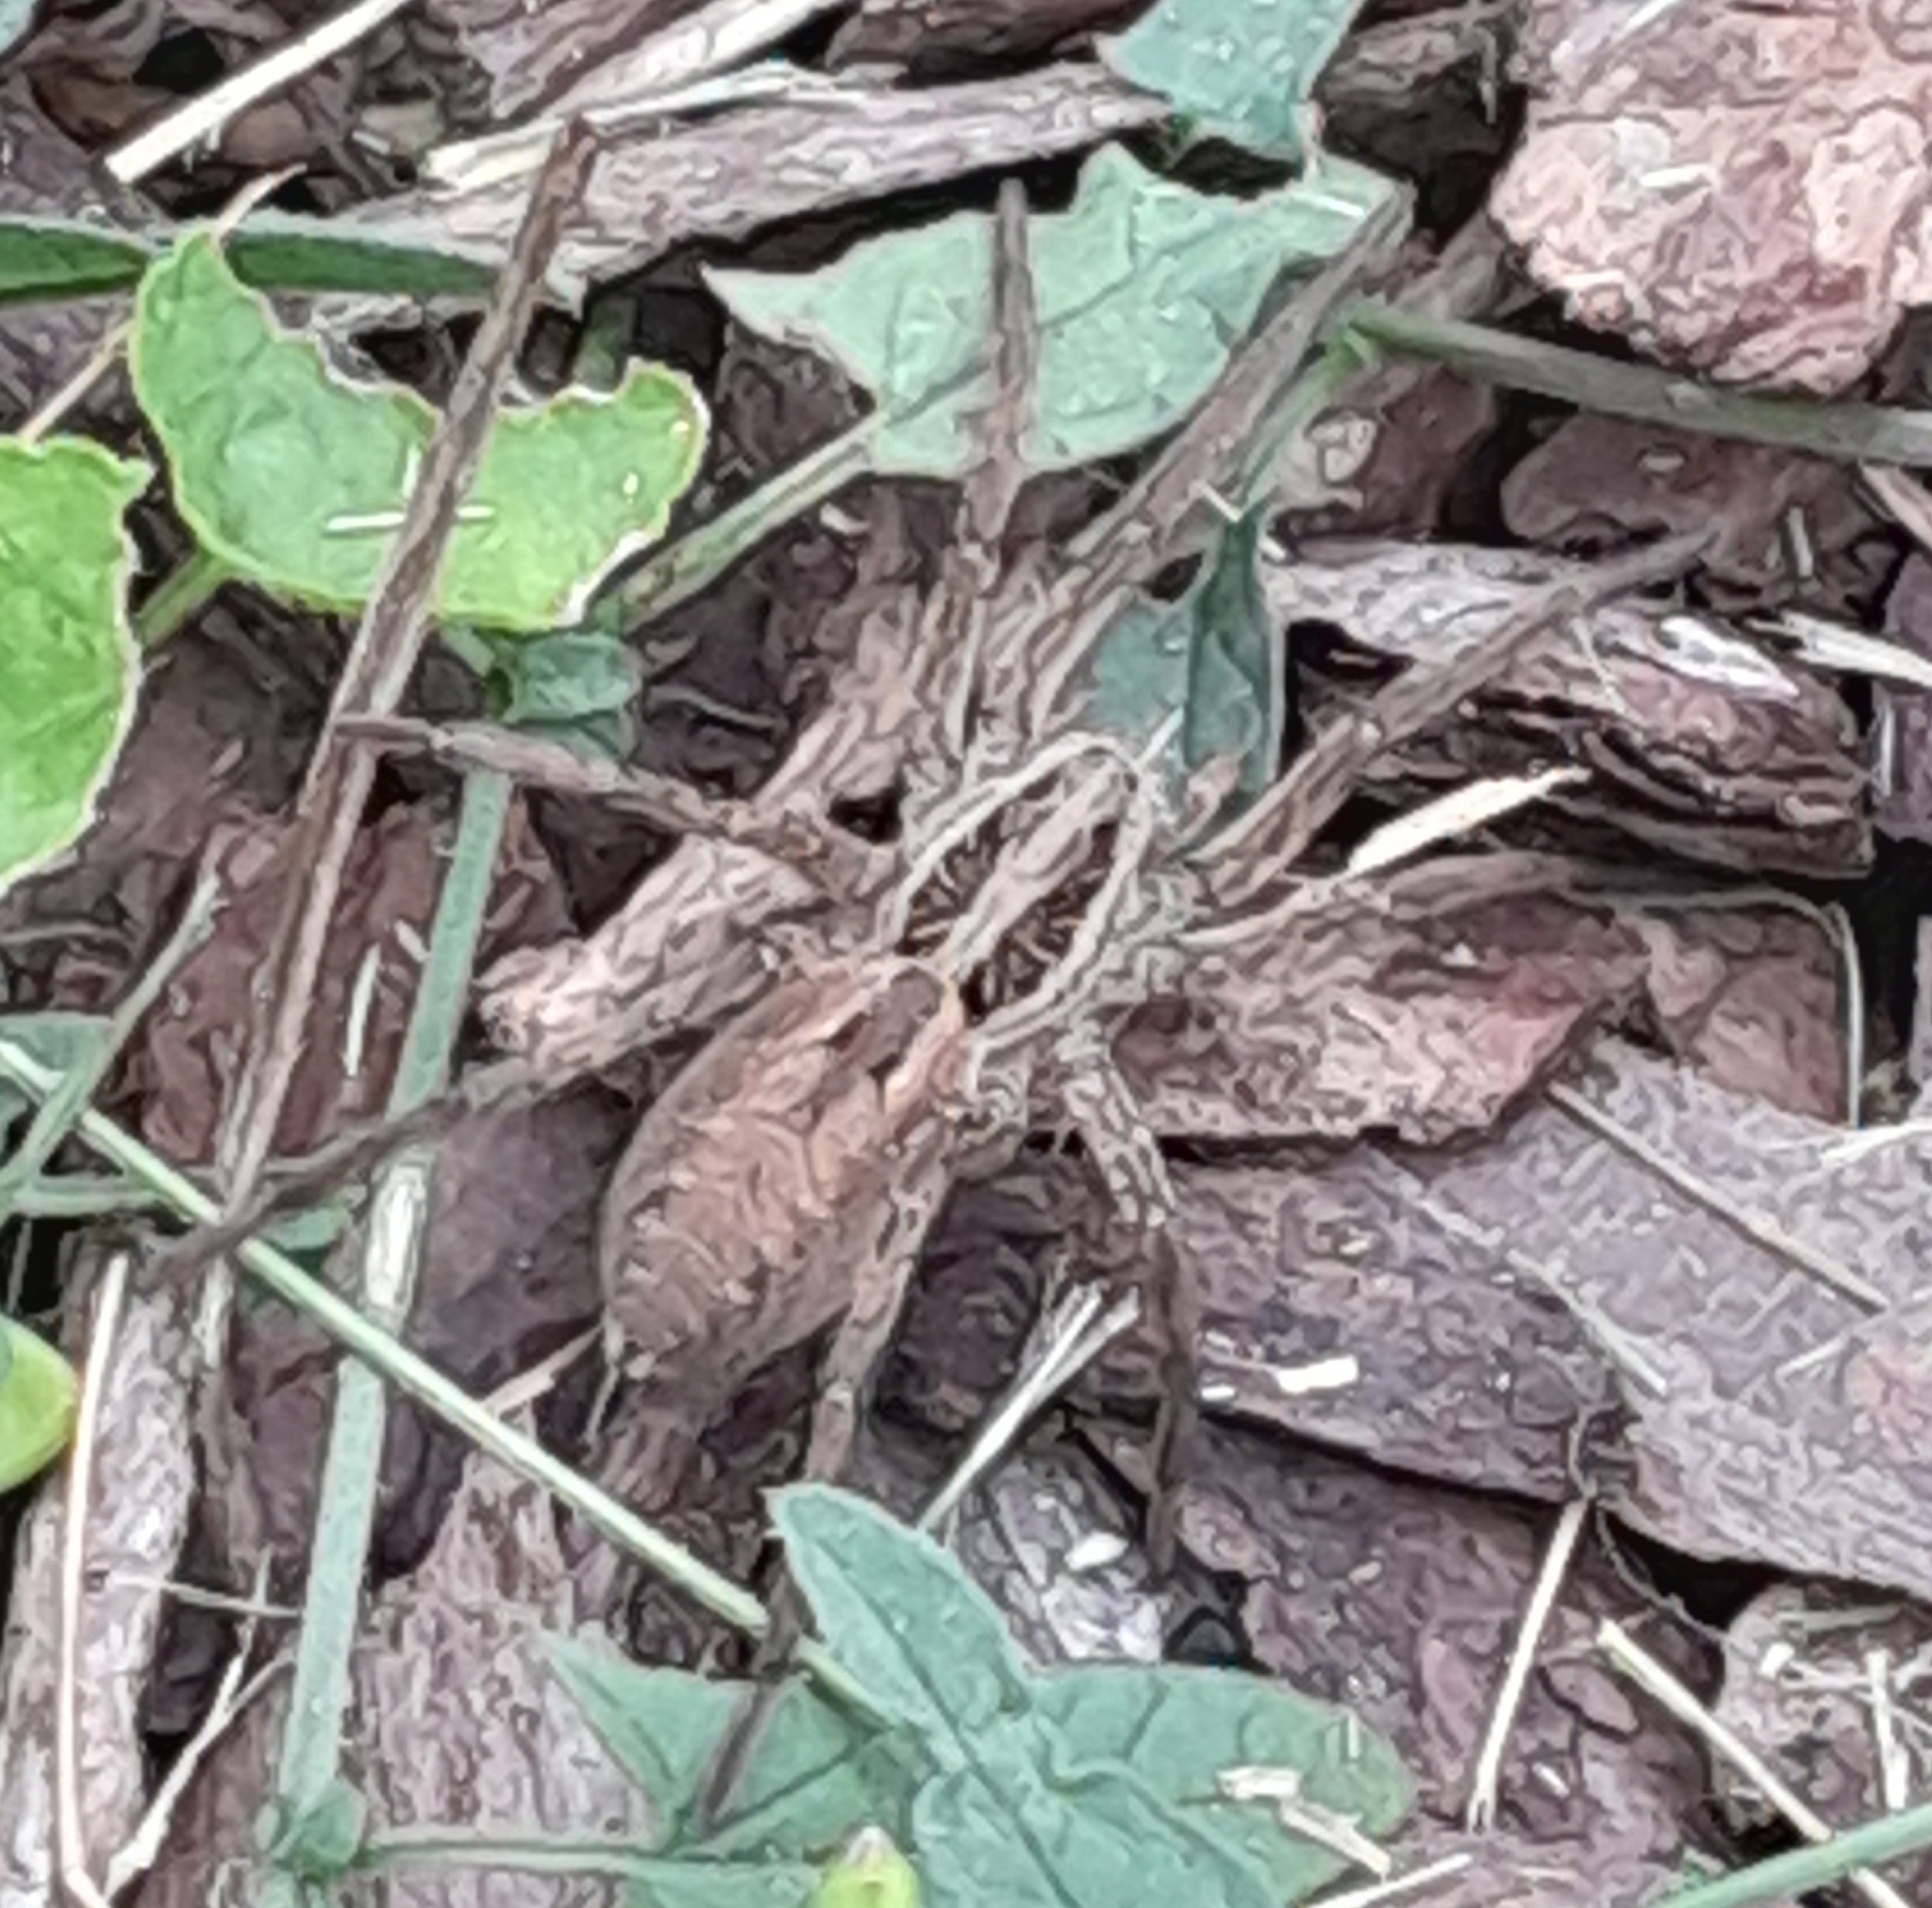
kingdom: Animalia
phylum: Arthropoda
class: Arachnida
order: Araneae
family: Lycosidae
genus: Hogna
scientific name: Hogna radiata
